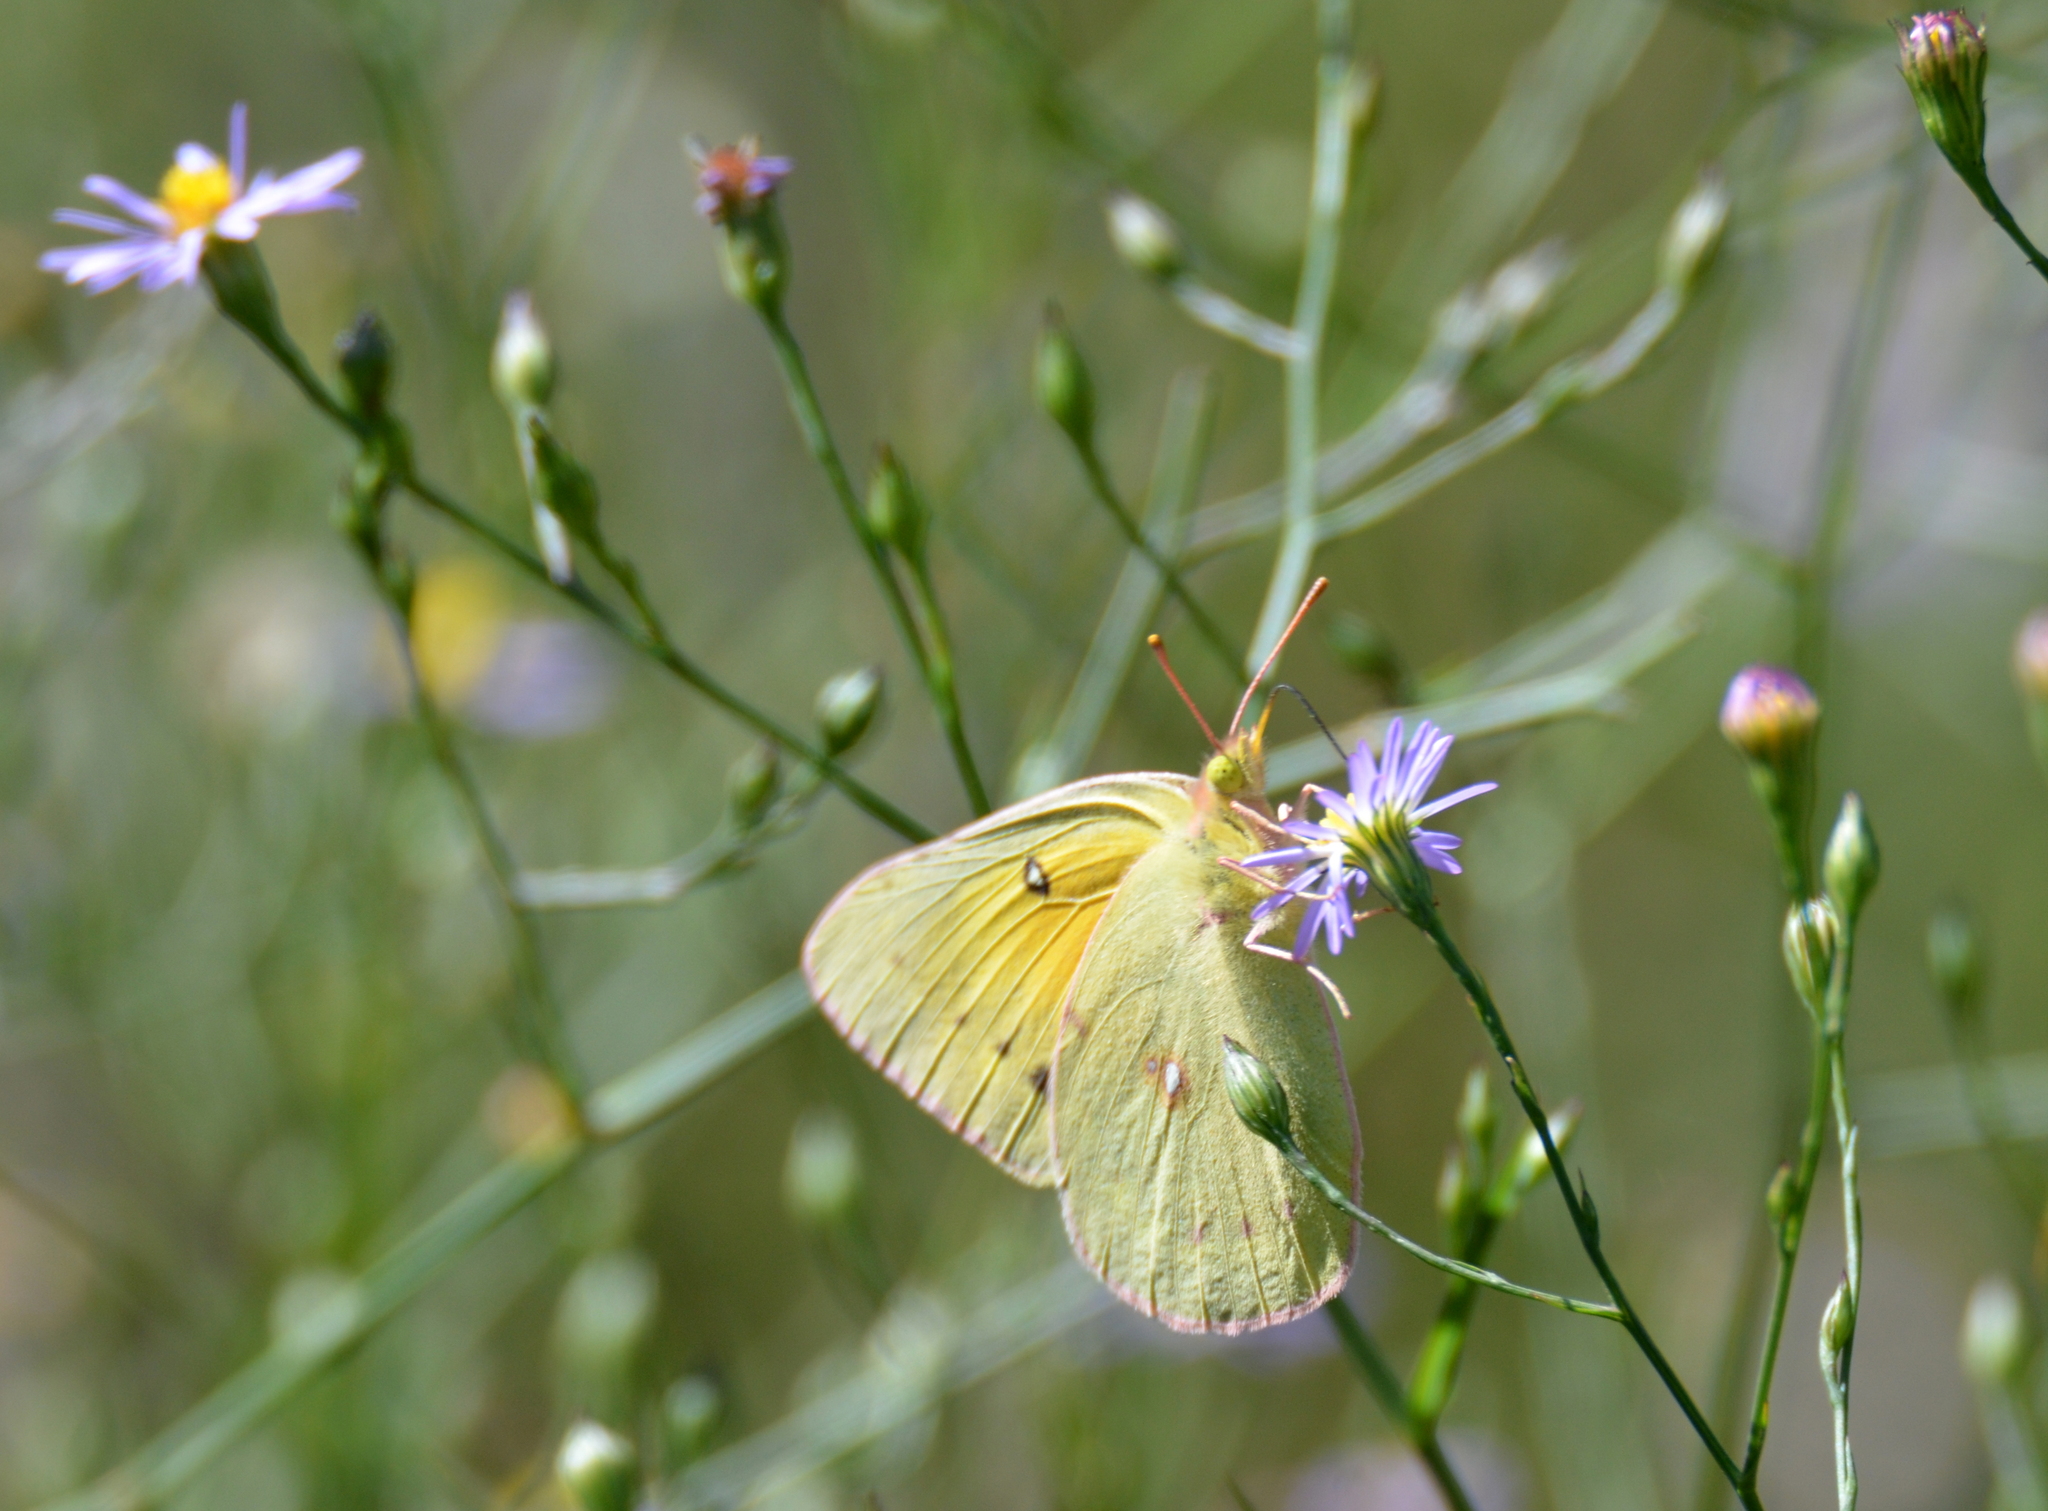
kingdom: Animalia
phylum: Arthropoda
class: Insecta
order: Lepidoptera
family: Pieridae
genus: Colias
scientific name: Colias eurytheme
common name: Alfalfa butterfly
